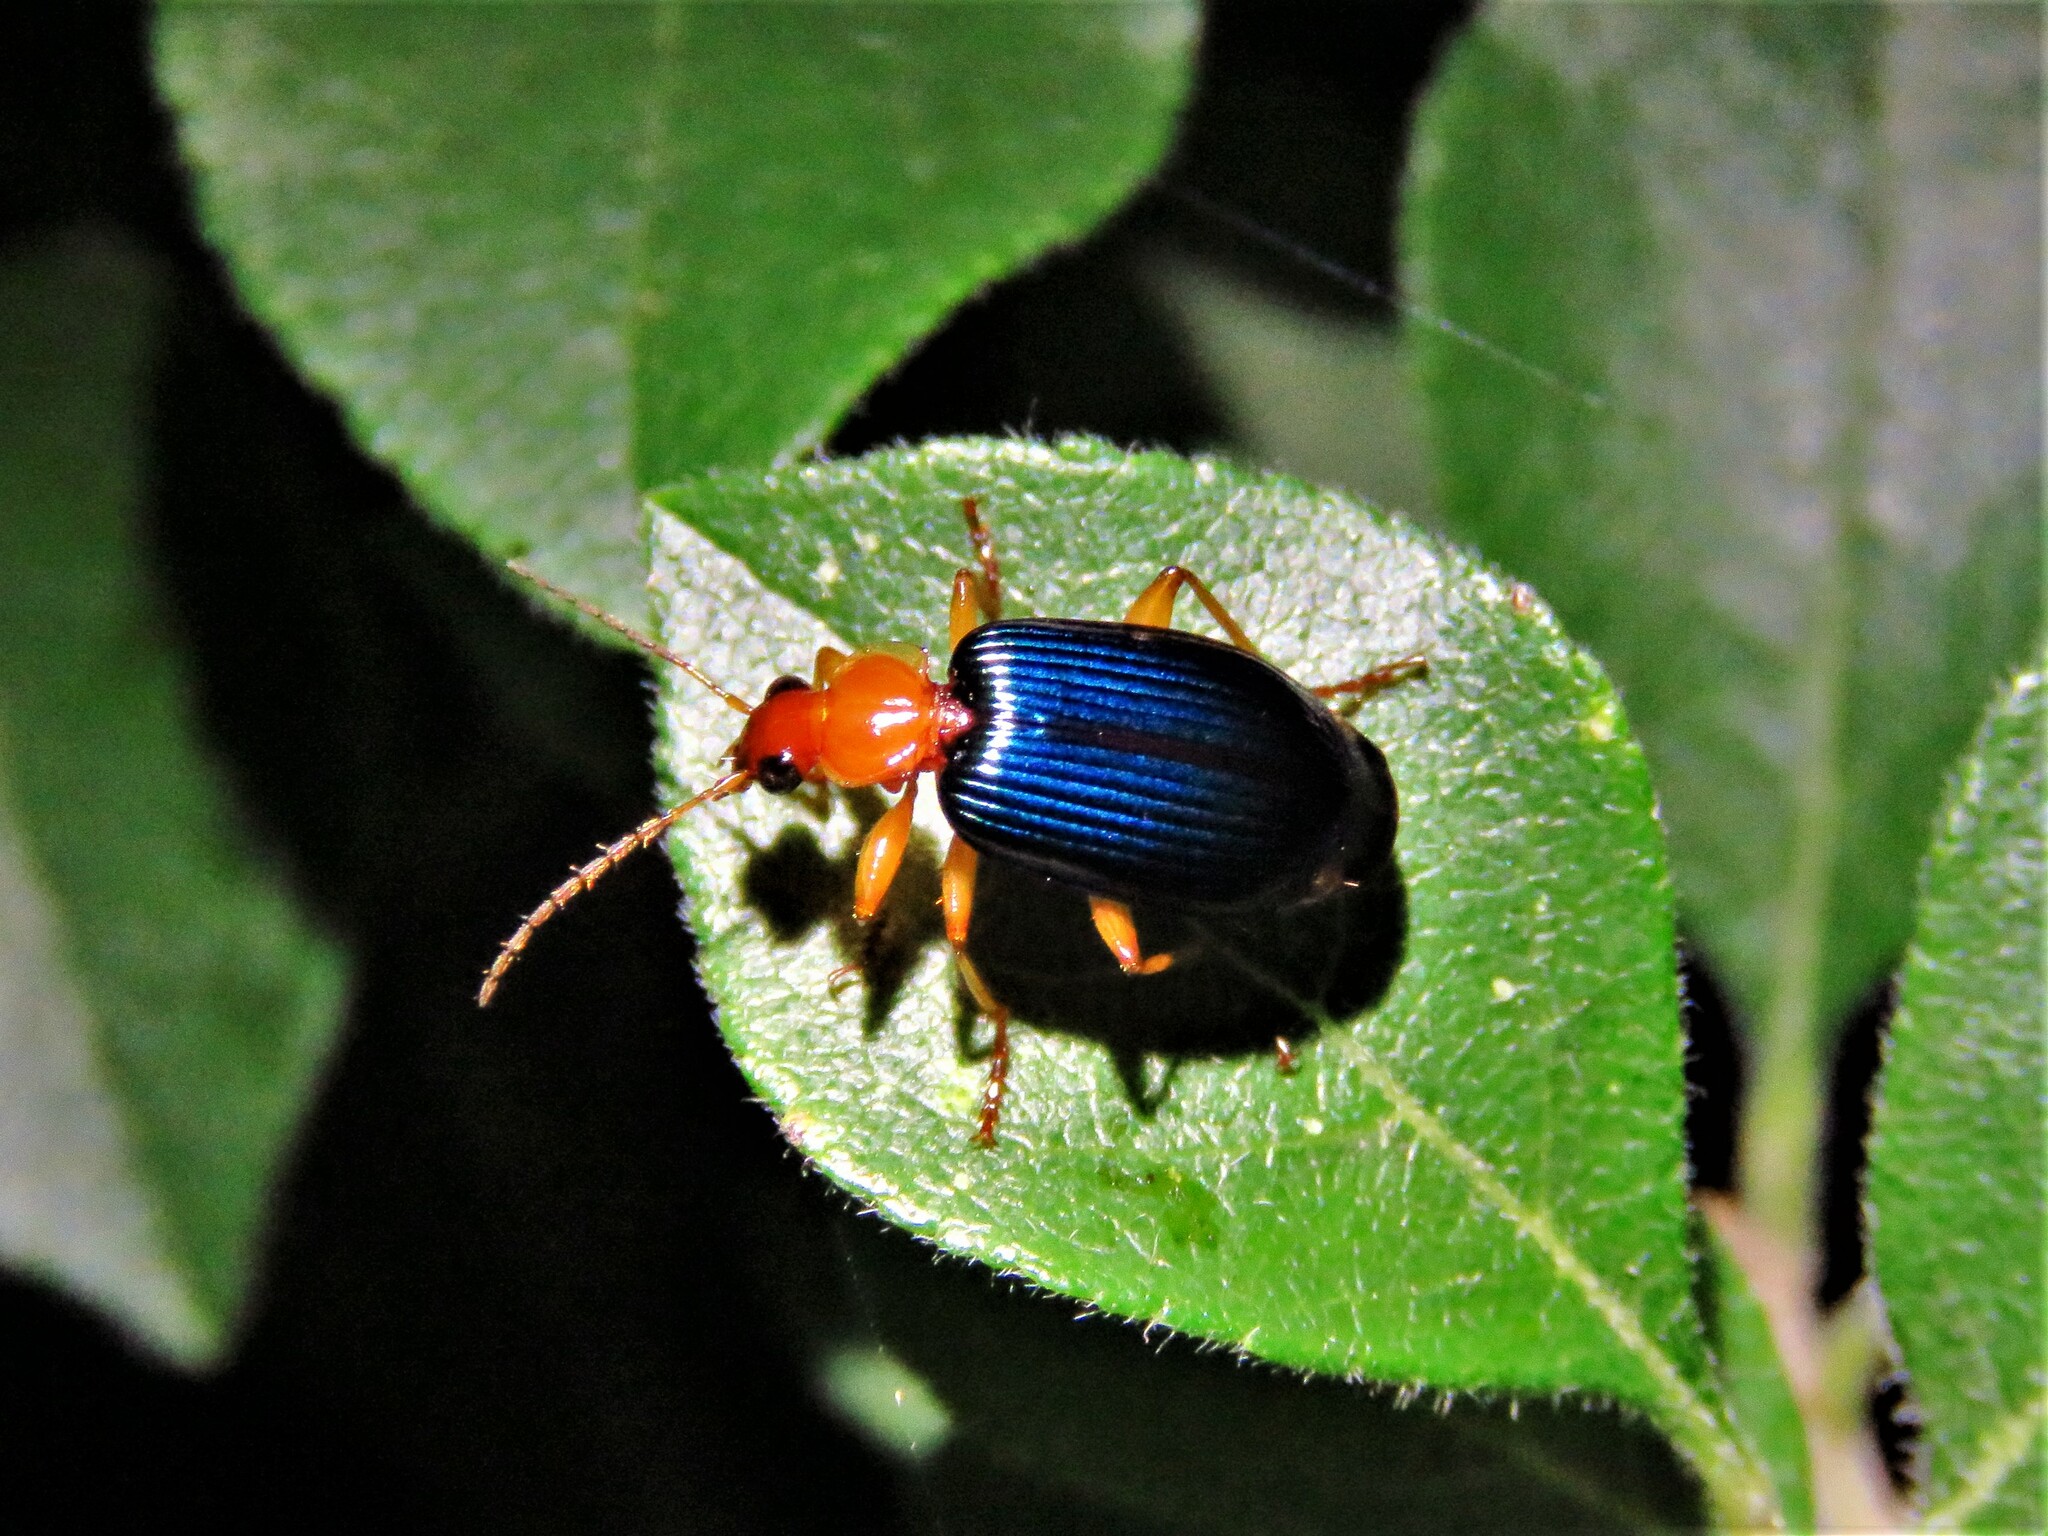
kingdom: Animalia
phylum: Arthropoda
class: Insecta
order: Coleoptera
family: Carabidae
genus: Lebia
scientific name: Lebia grandis
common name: Large foliage ground beetle
